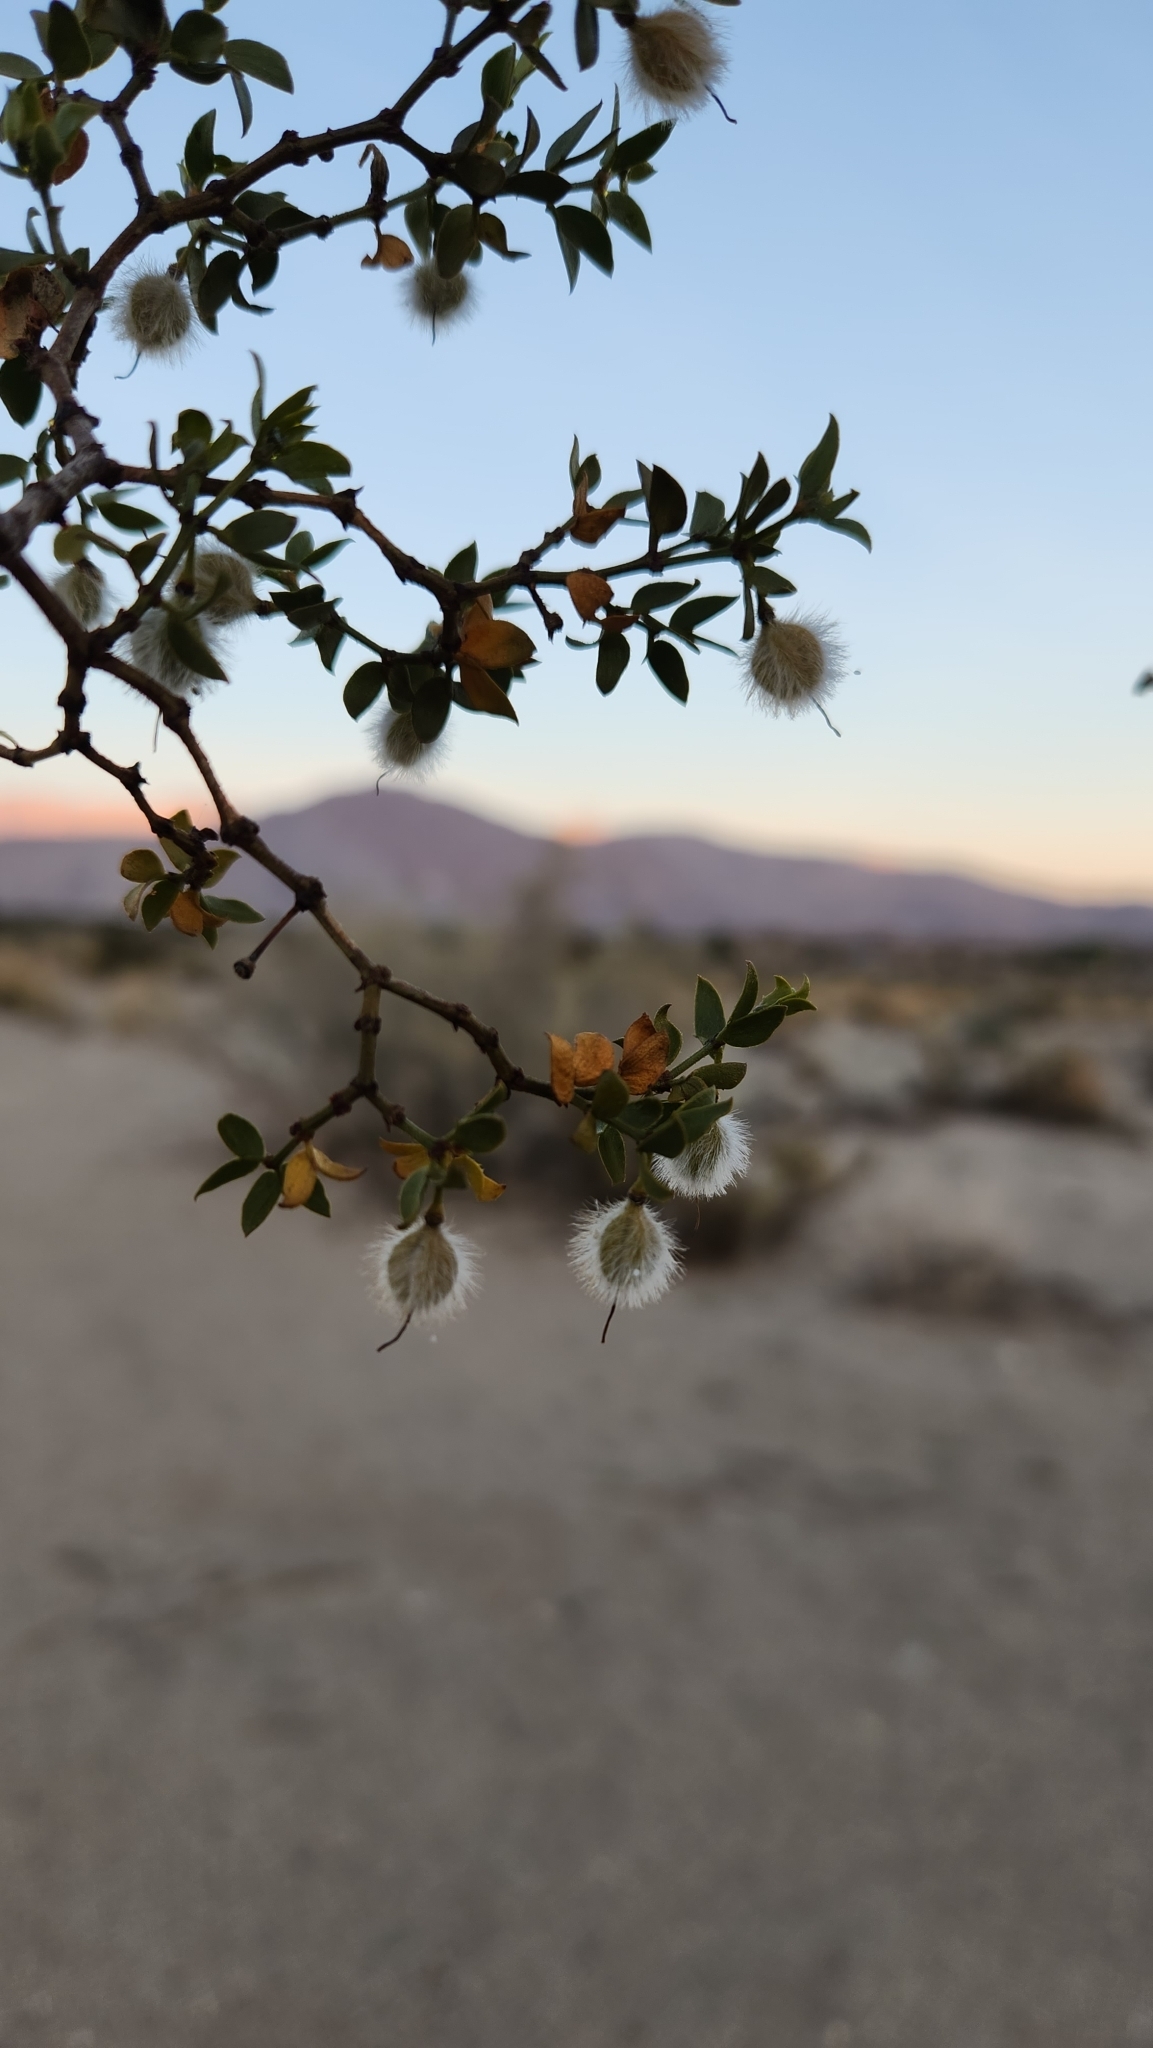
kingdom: Plantae
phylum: Tracheophyta
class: Magnoliopsida
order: Zygophyllales
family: Zygophyllaceae
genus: Larrea
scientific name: Larrea tridentata
